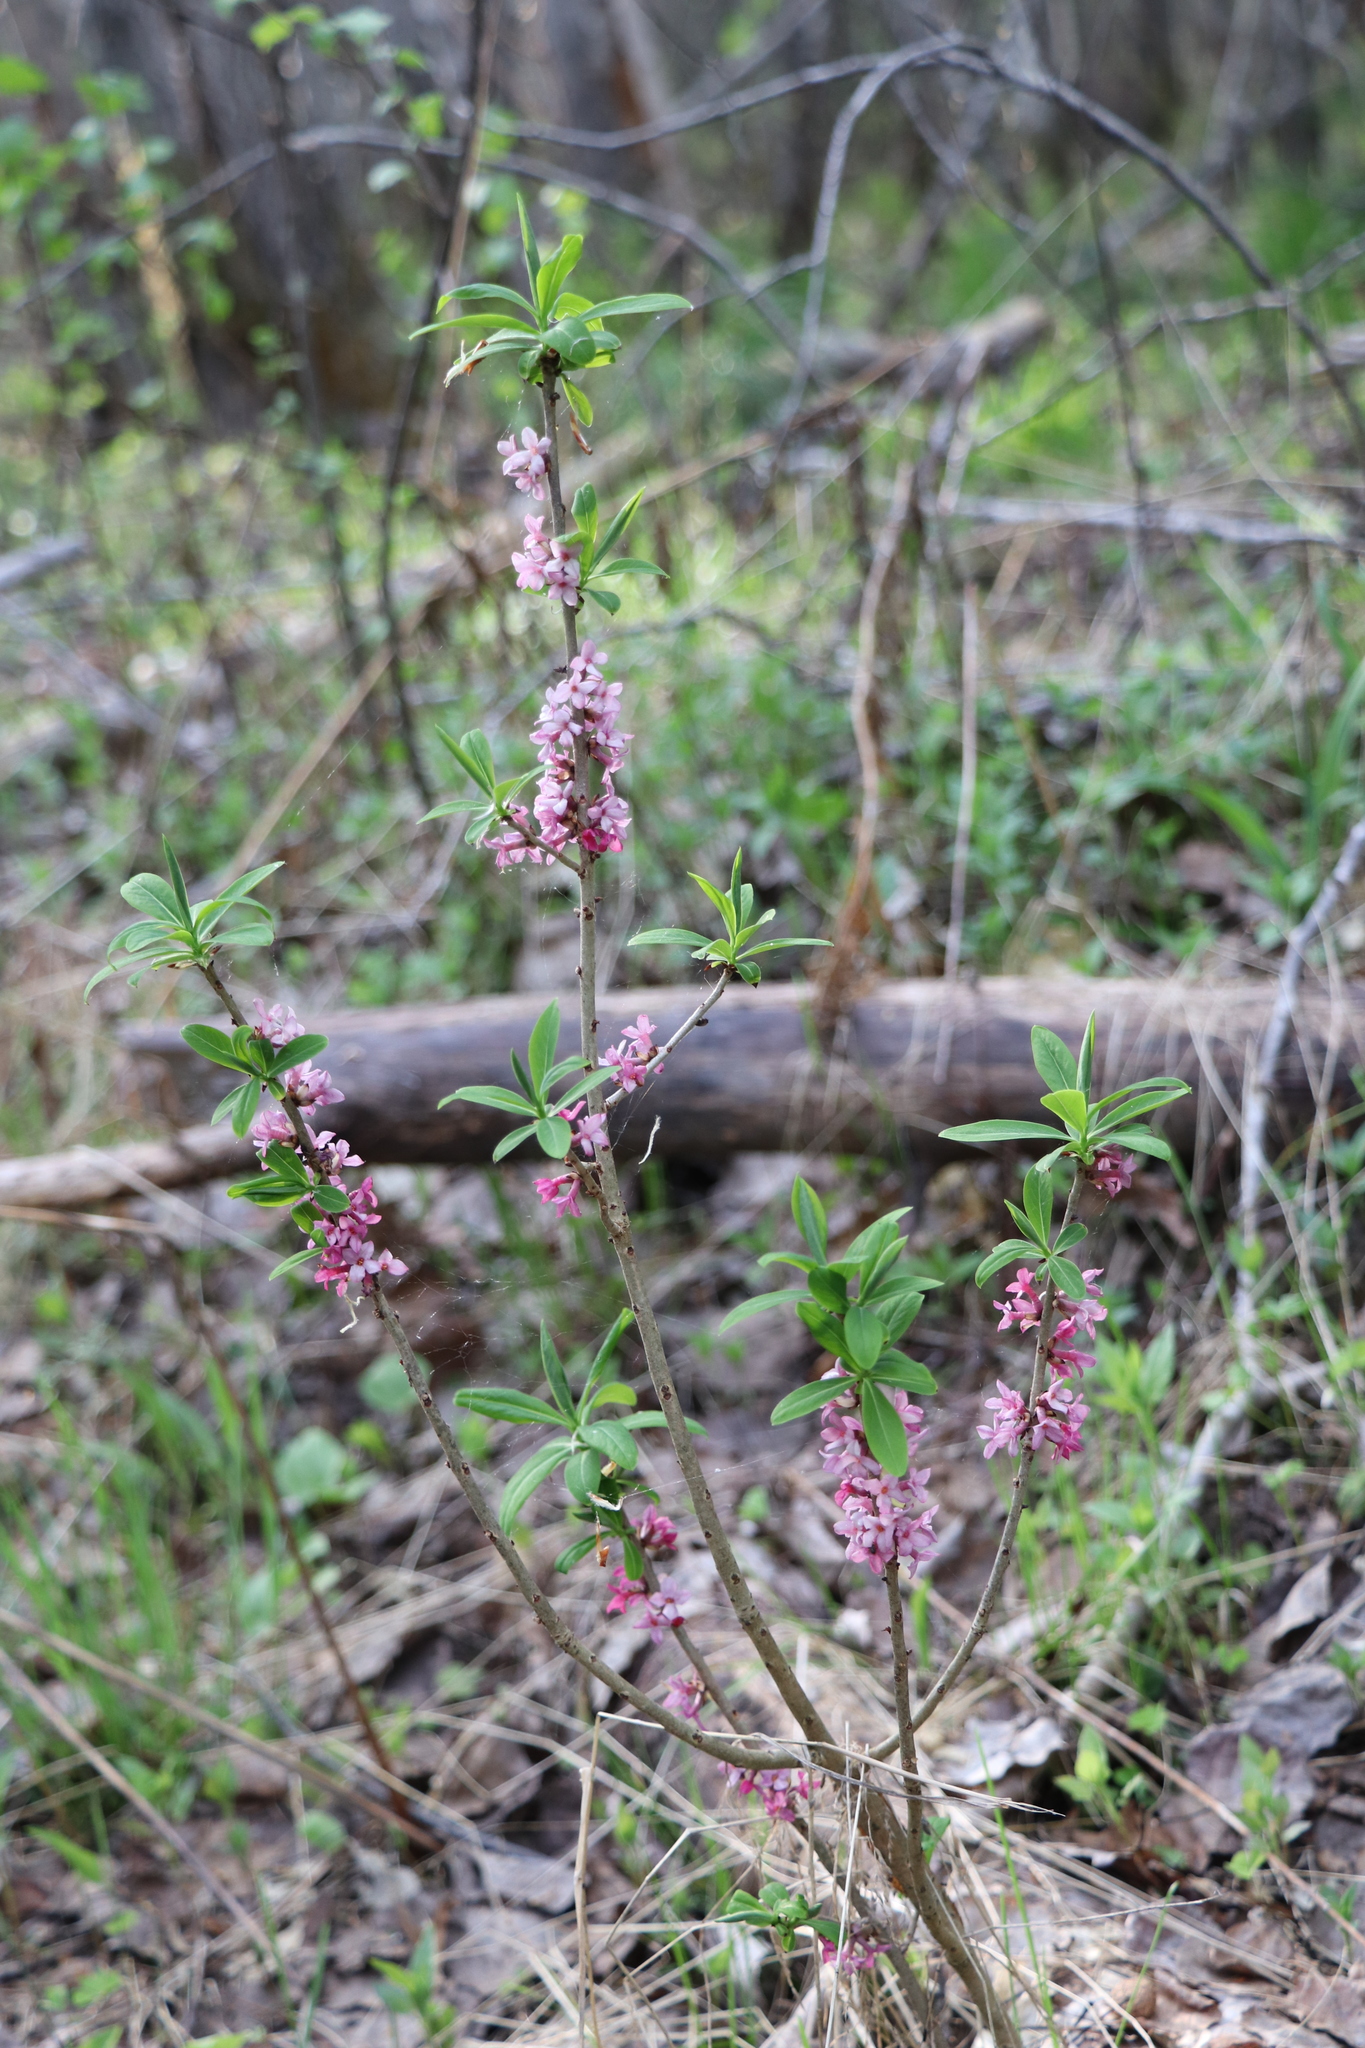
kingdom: Plantae
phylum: Tracheophyta
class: Magnoliopsida
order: Malvales
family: Thymelaeaceae
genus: Daphne
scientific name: Daphne mezereum
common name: Mezereon
